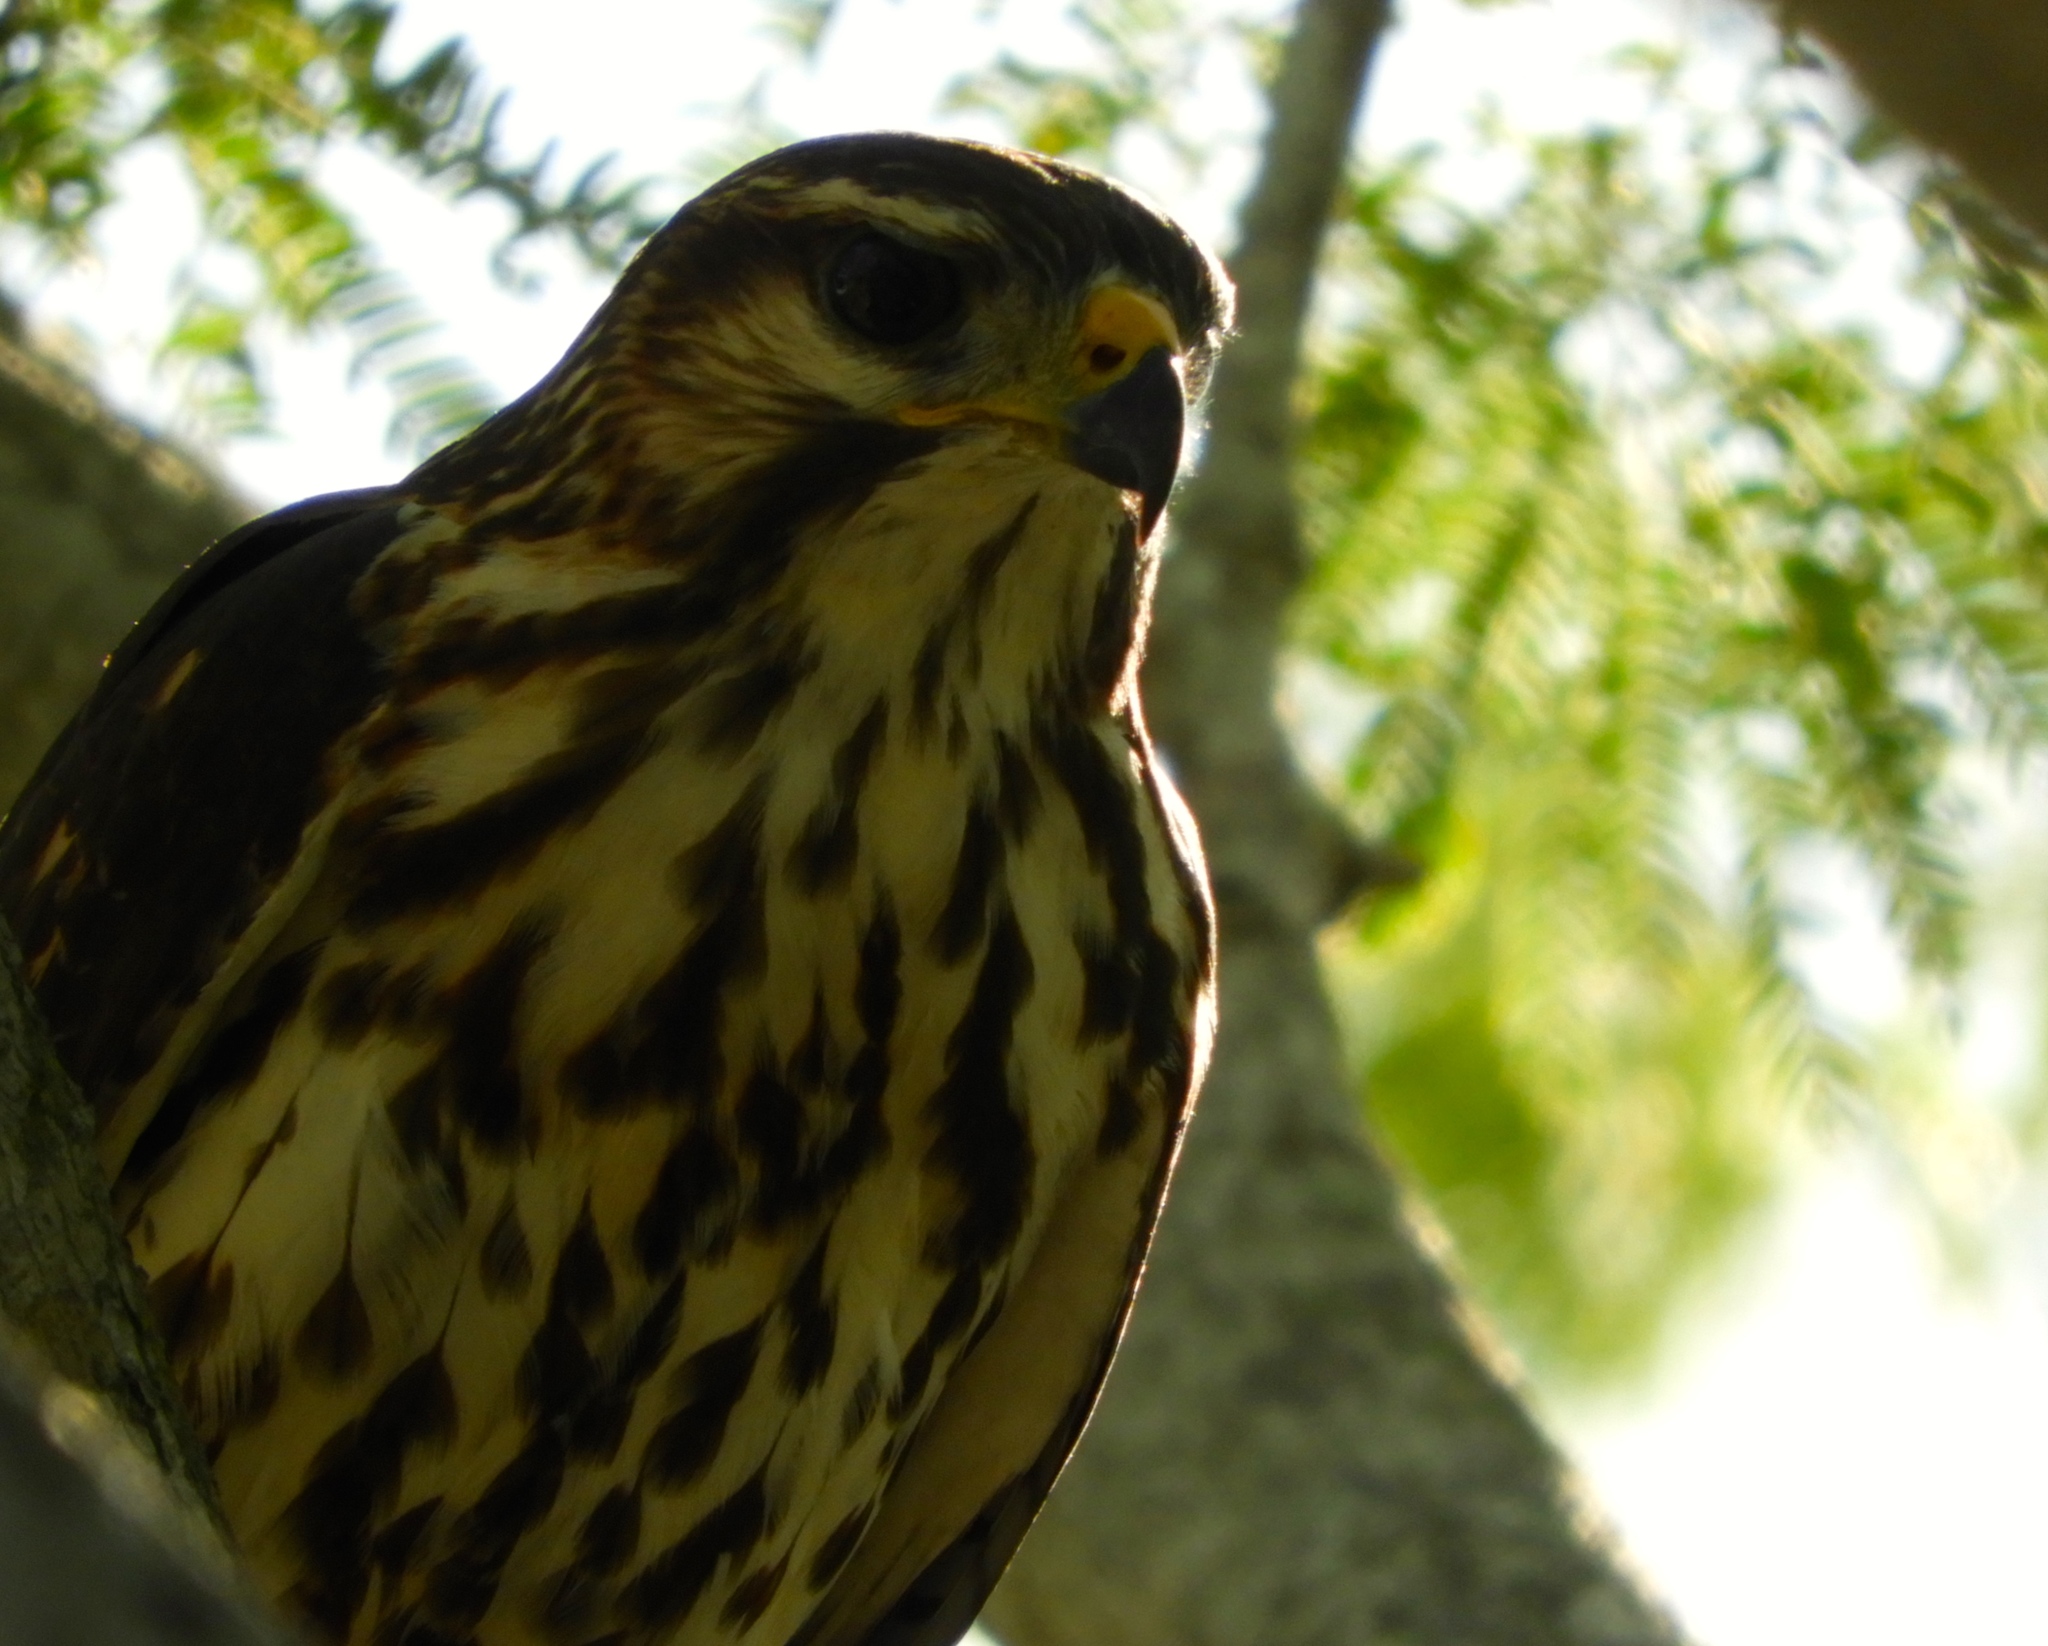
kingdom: Animalia
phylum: Chordata
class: Aves
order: Accipitriformes
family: Accipitridae
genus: Buteo
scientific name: Buteo nitidus
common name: Grey-lined hawk
